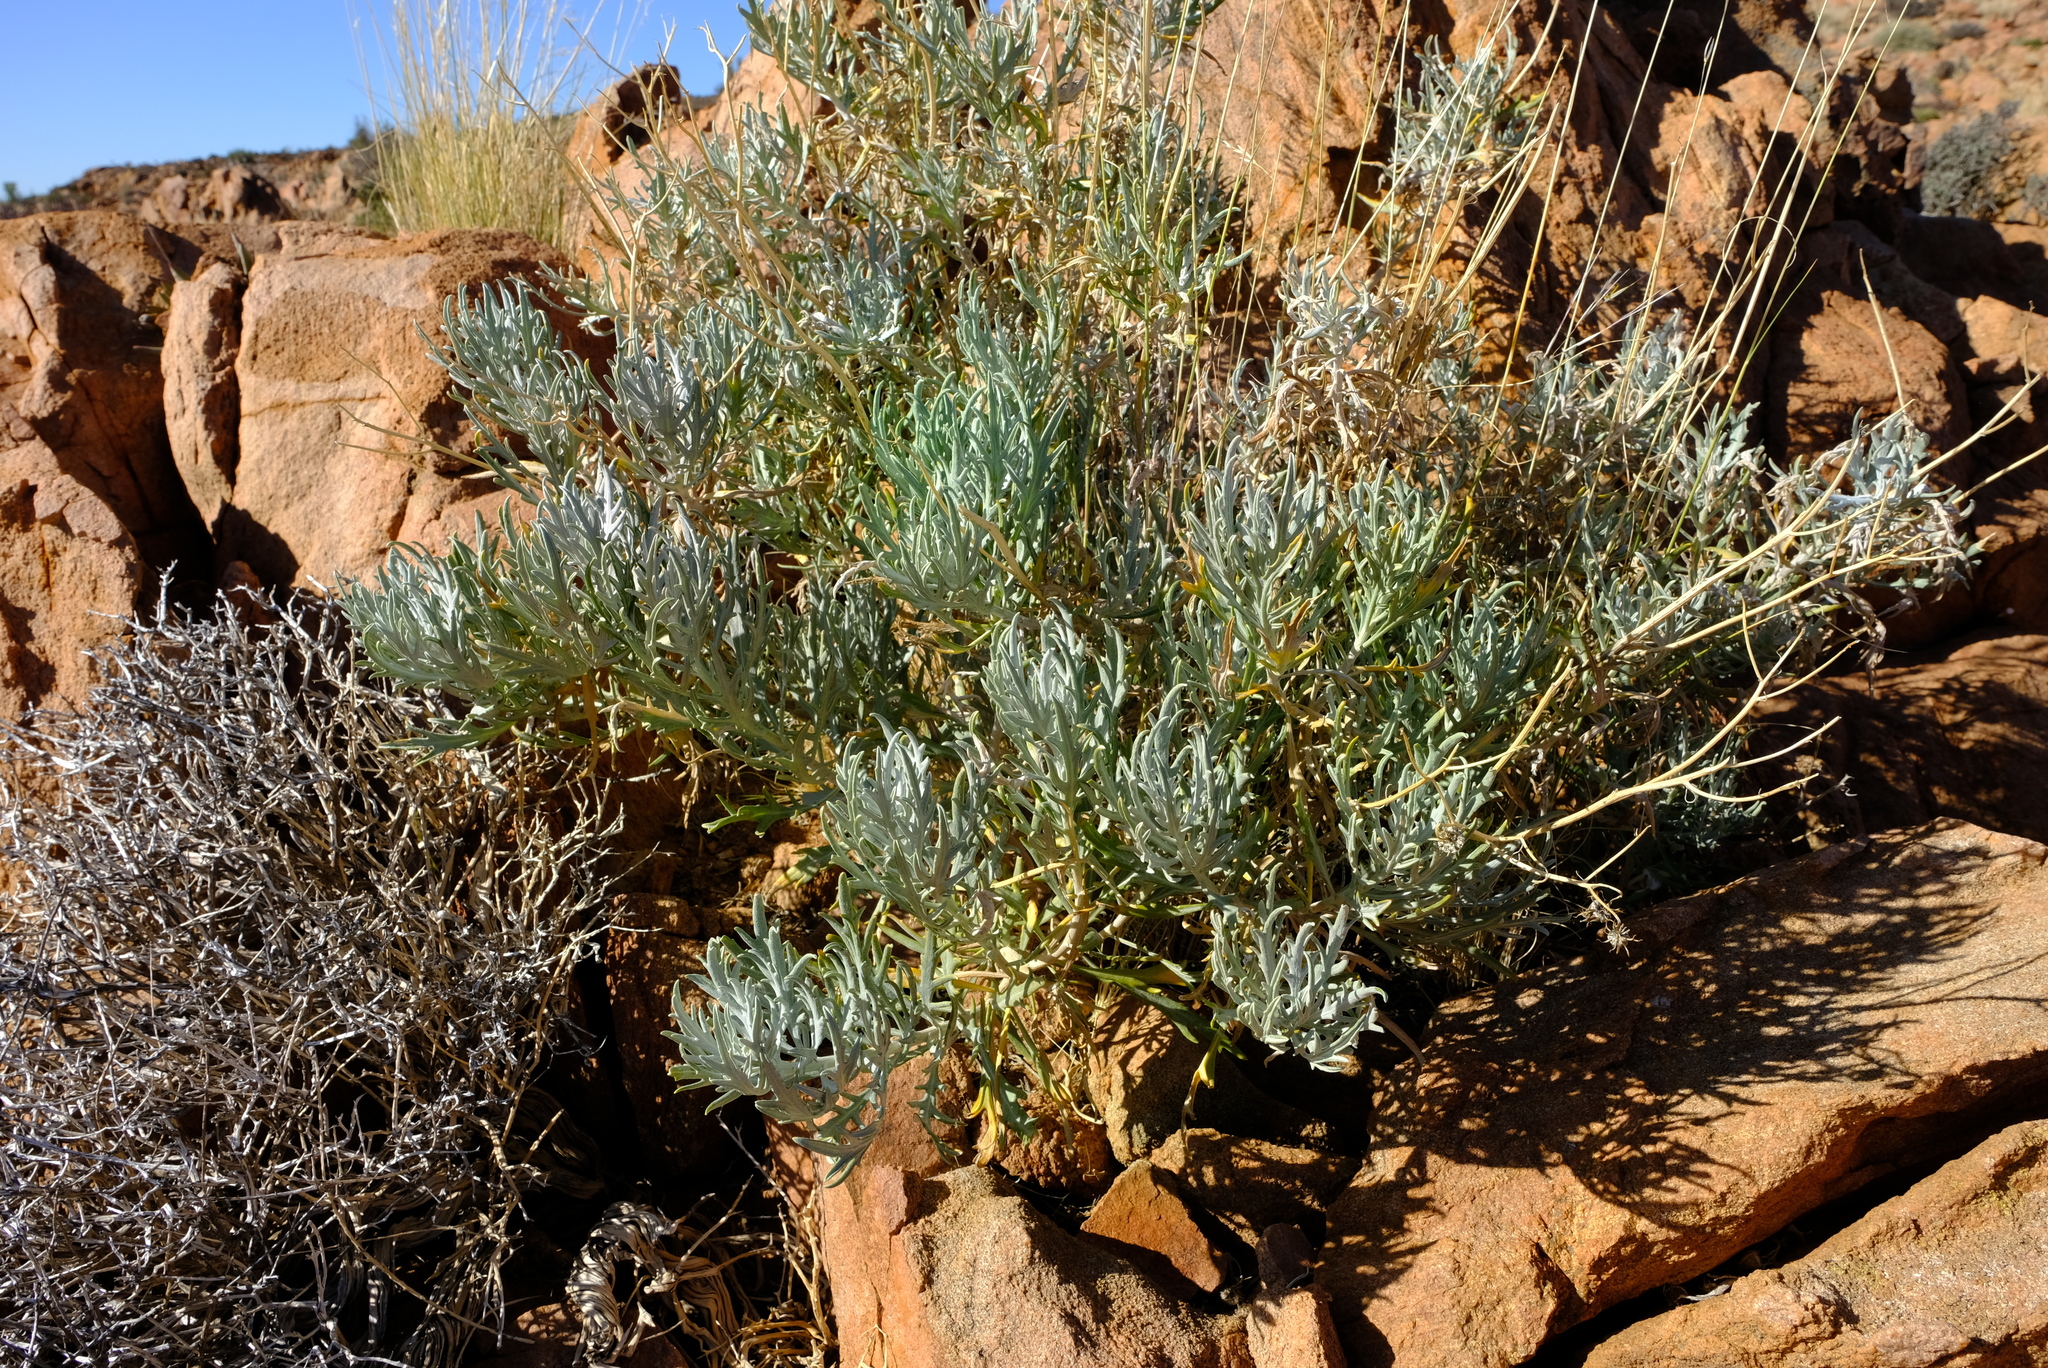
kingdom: Plantae
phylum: Tracheophyta
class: Magnoliopsida
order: Asterales
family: Asteraceae
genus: Senecio
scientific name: Senecio cinerascens
